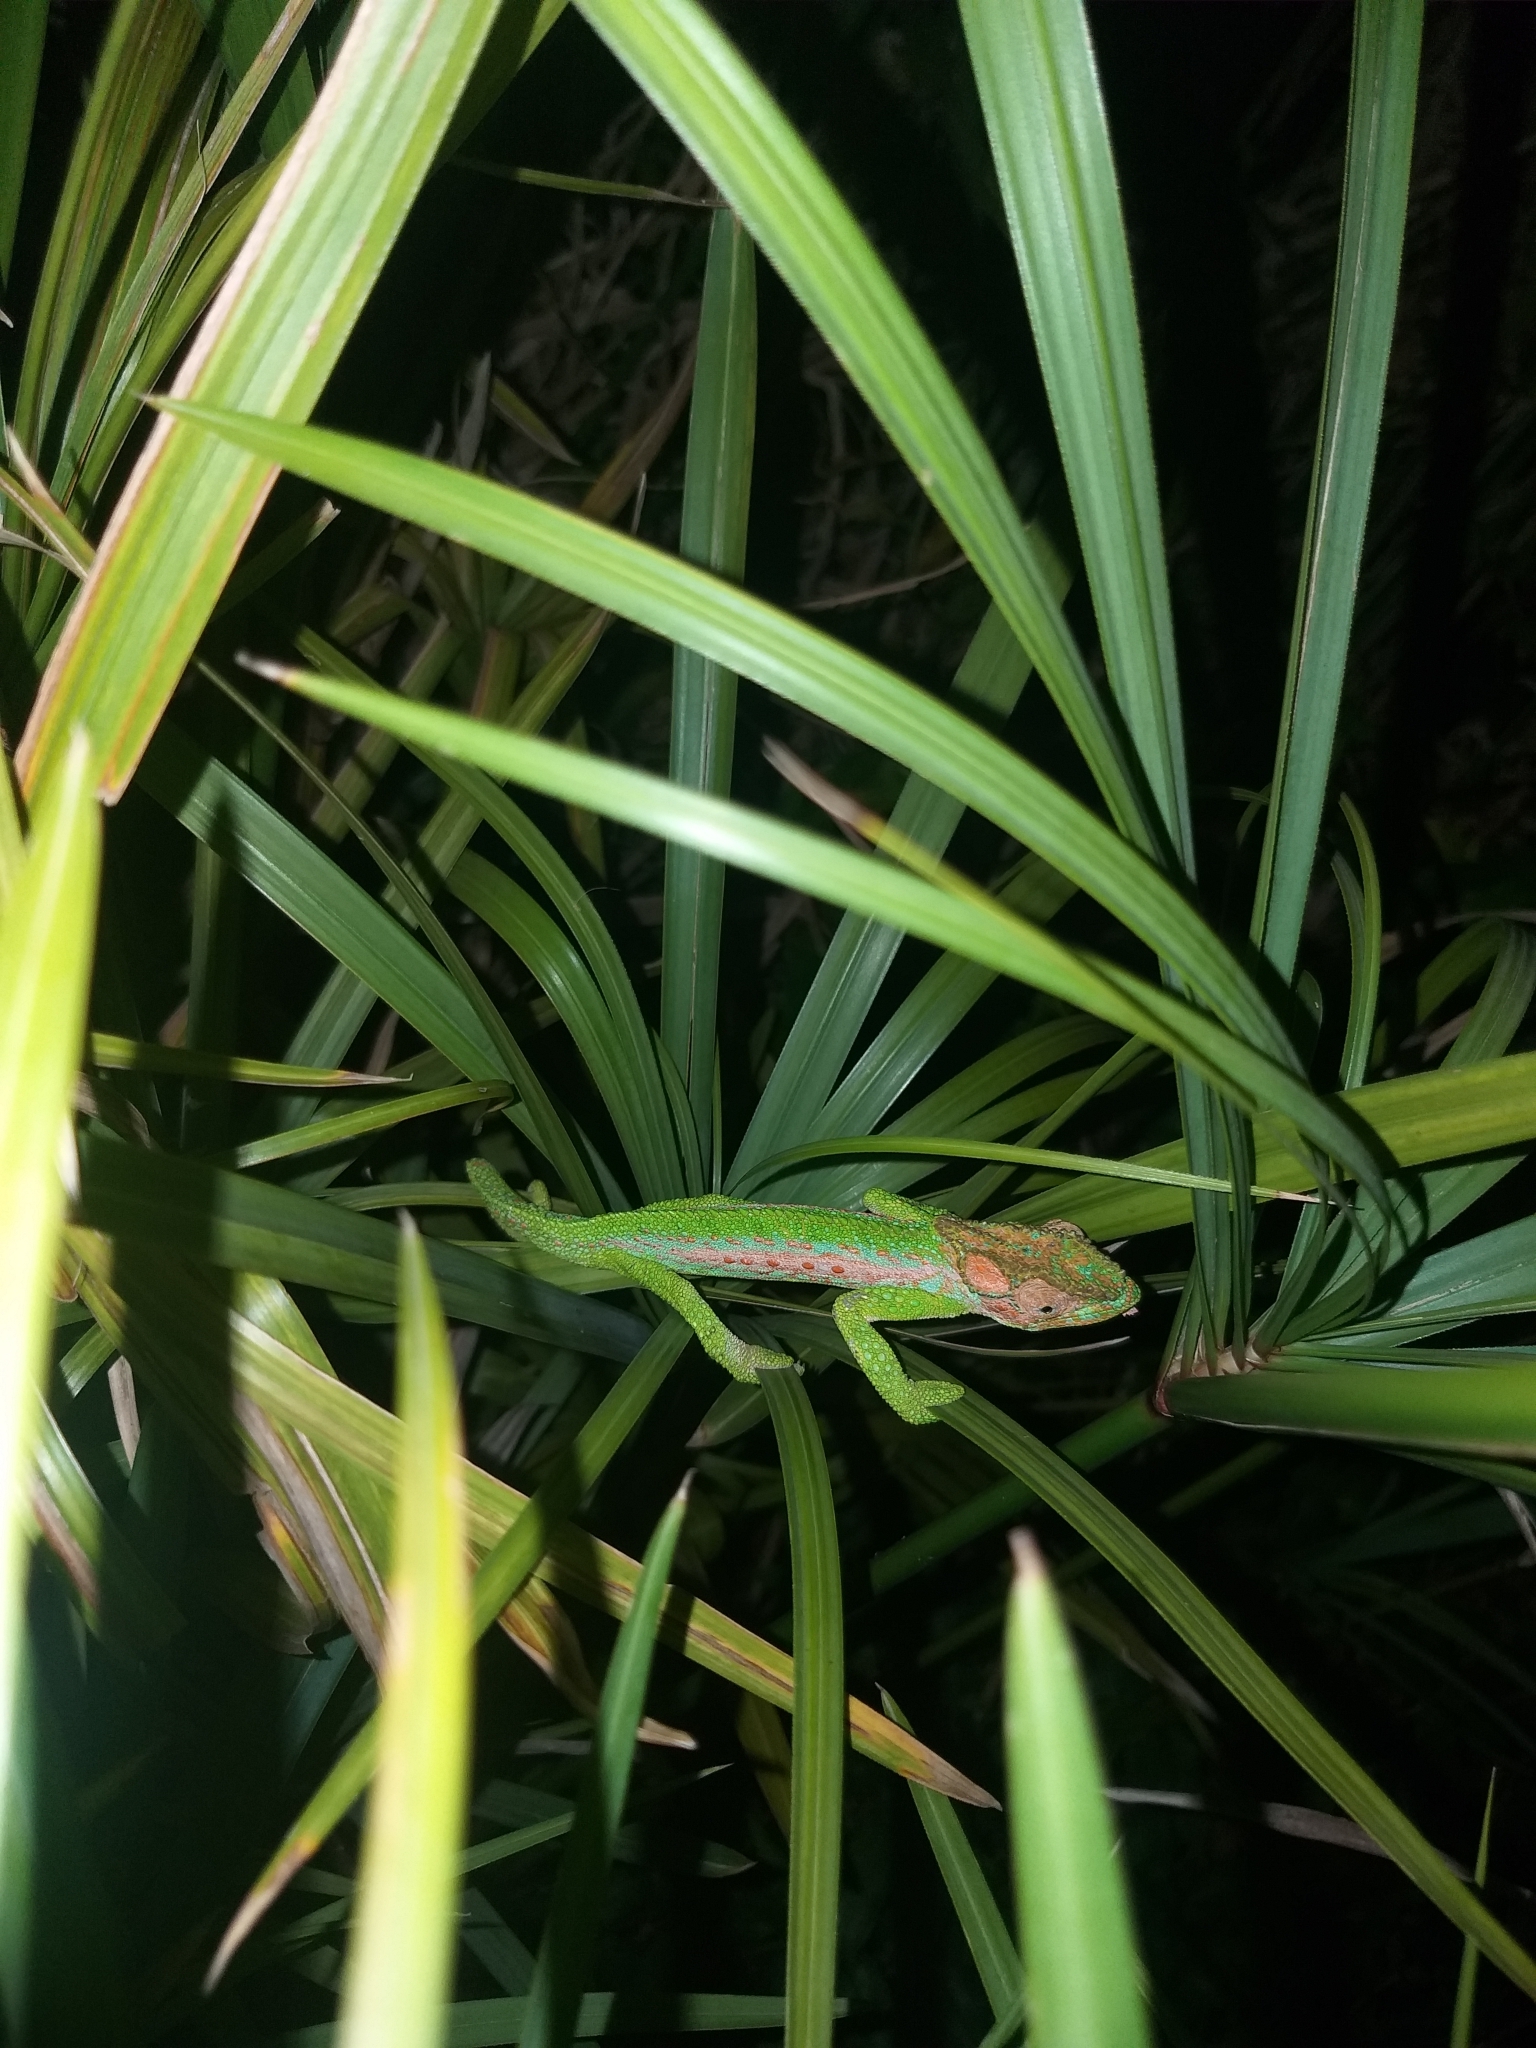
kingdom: Animalia
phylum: Chordata
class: Squamata
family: Chamaeleonidae
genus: Bradypodion
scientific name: Bradypodion pumilum
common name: Cape dwarf chameleon
